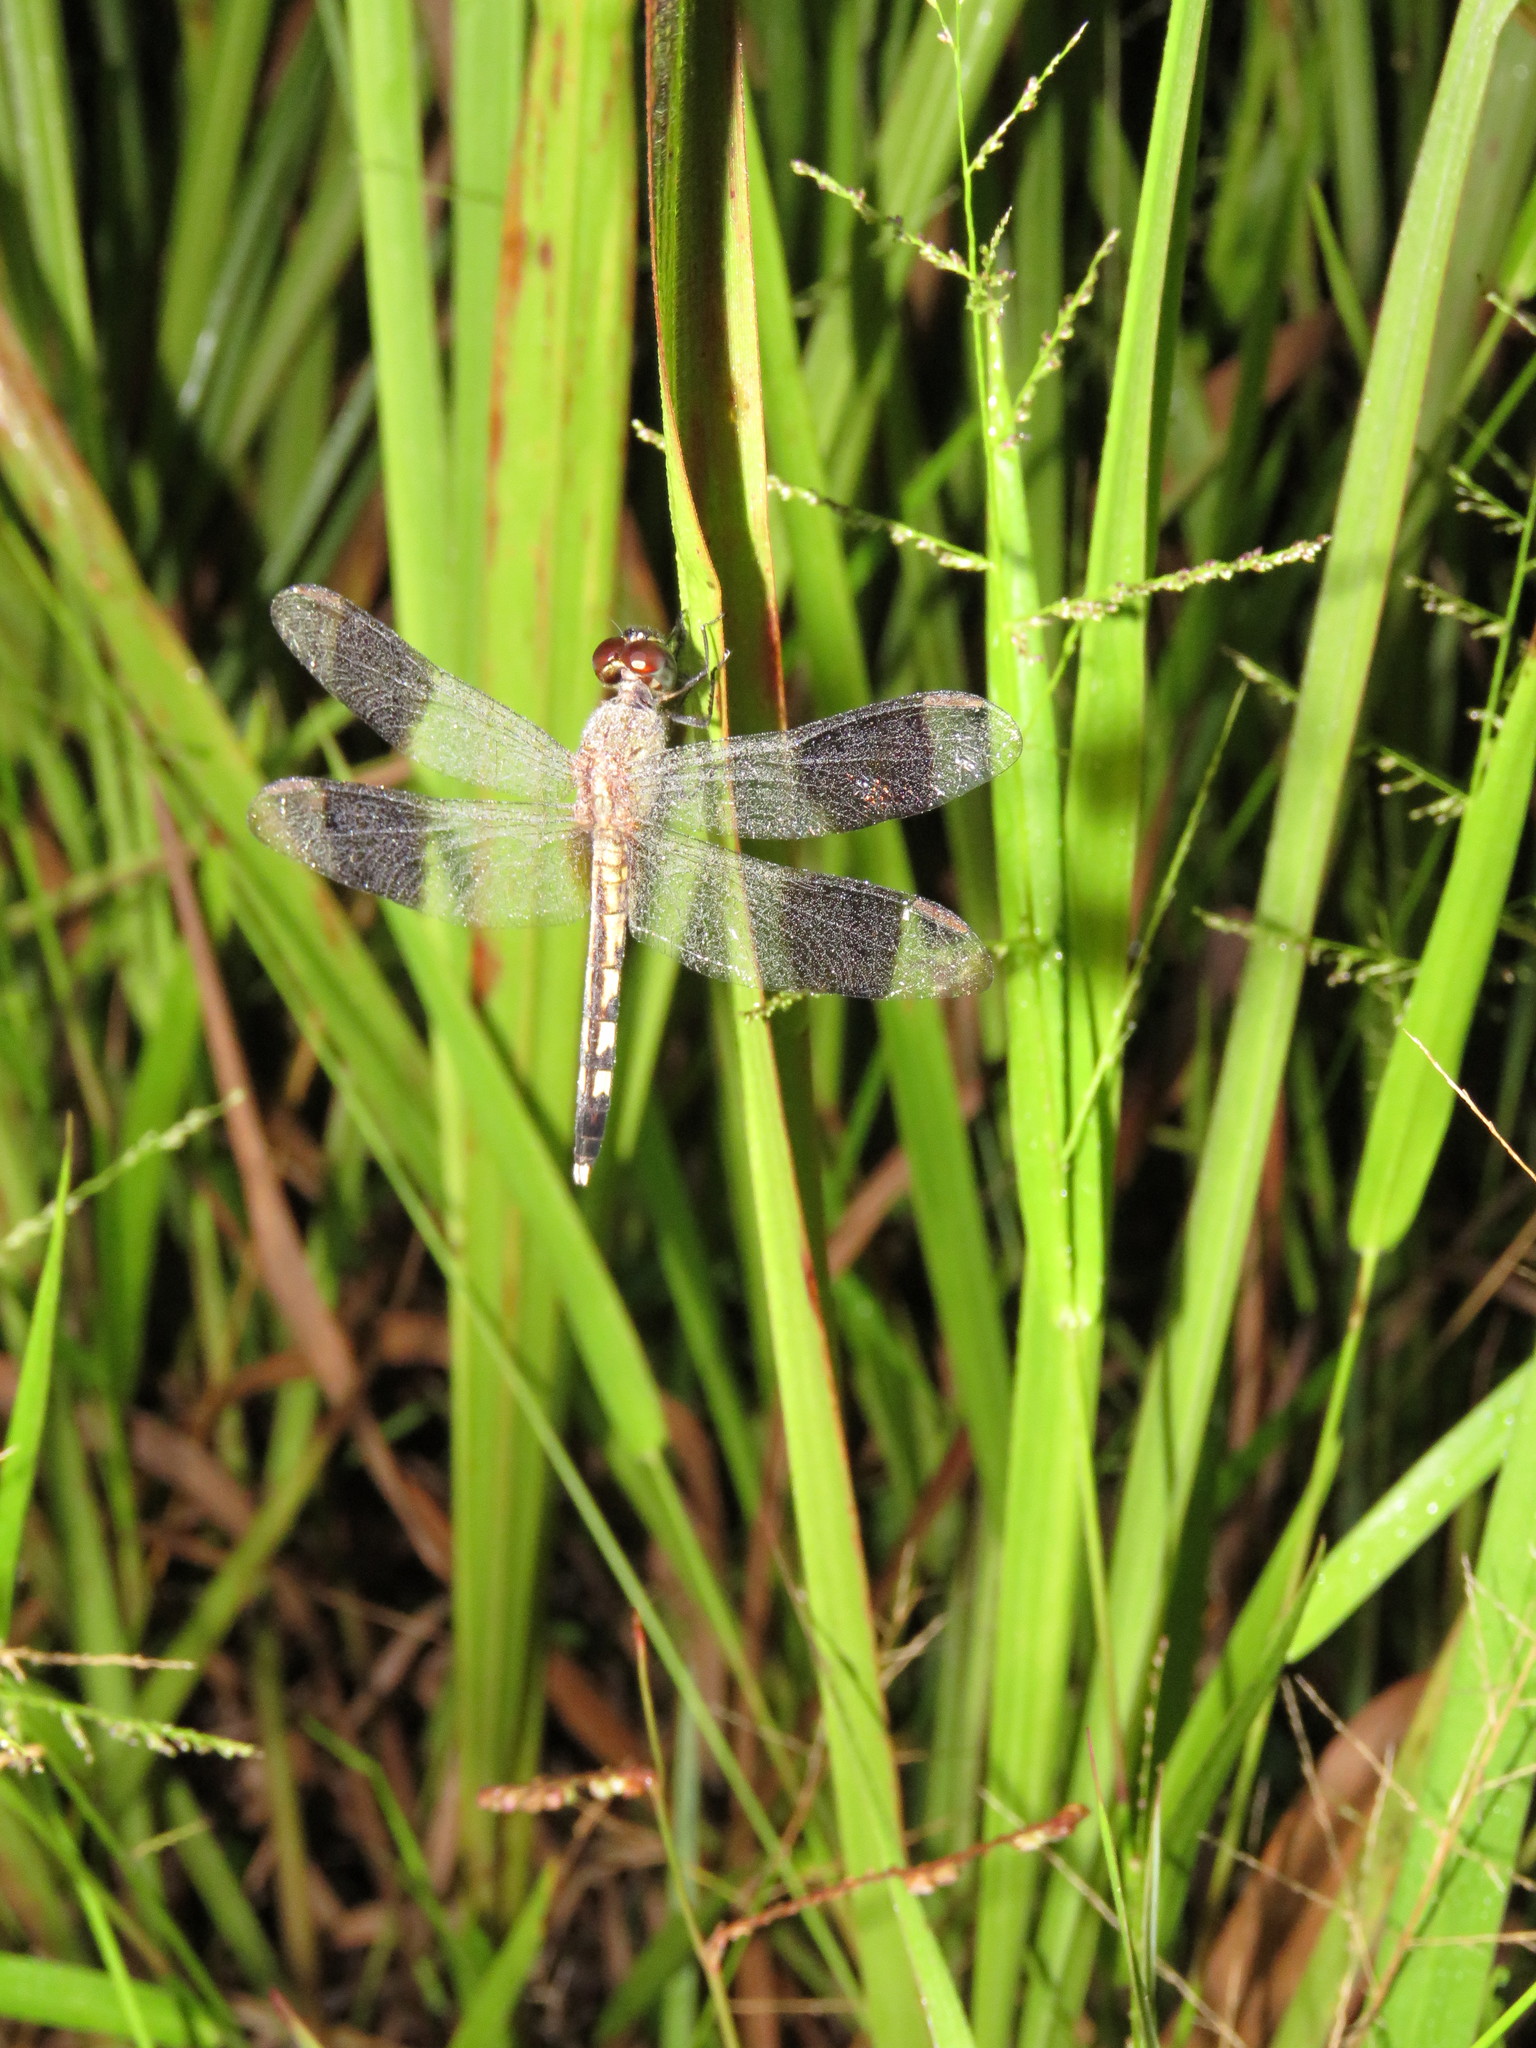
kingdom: Animalia
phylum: Arthropoda
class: Insecta
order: Odonata
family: Libellulidae
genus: Erythrodiplax
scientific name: Erythrodiplax umbrata
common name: Band-winged dragonlet
